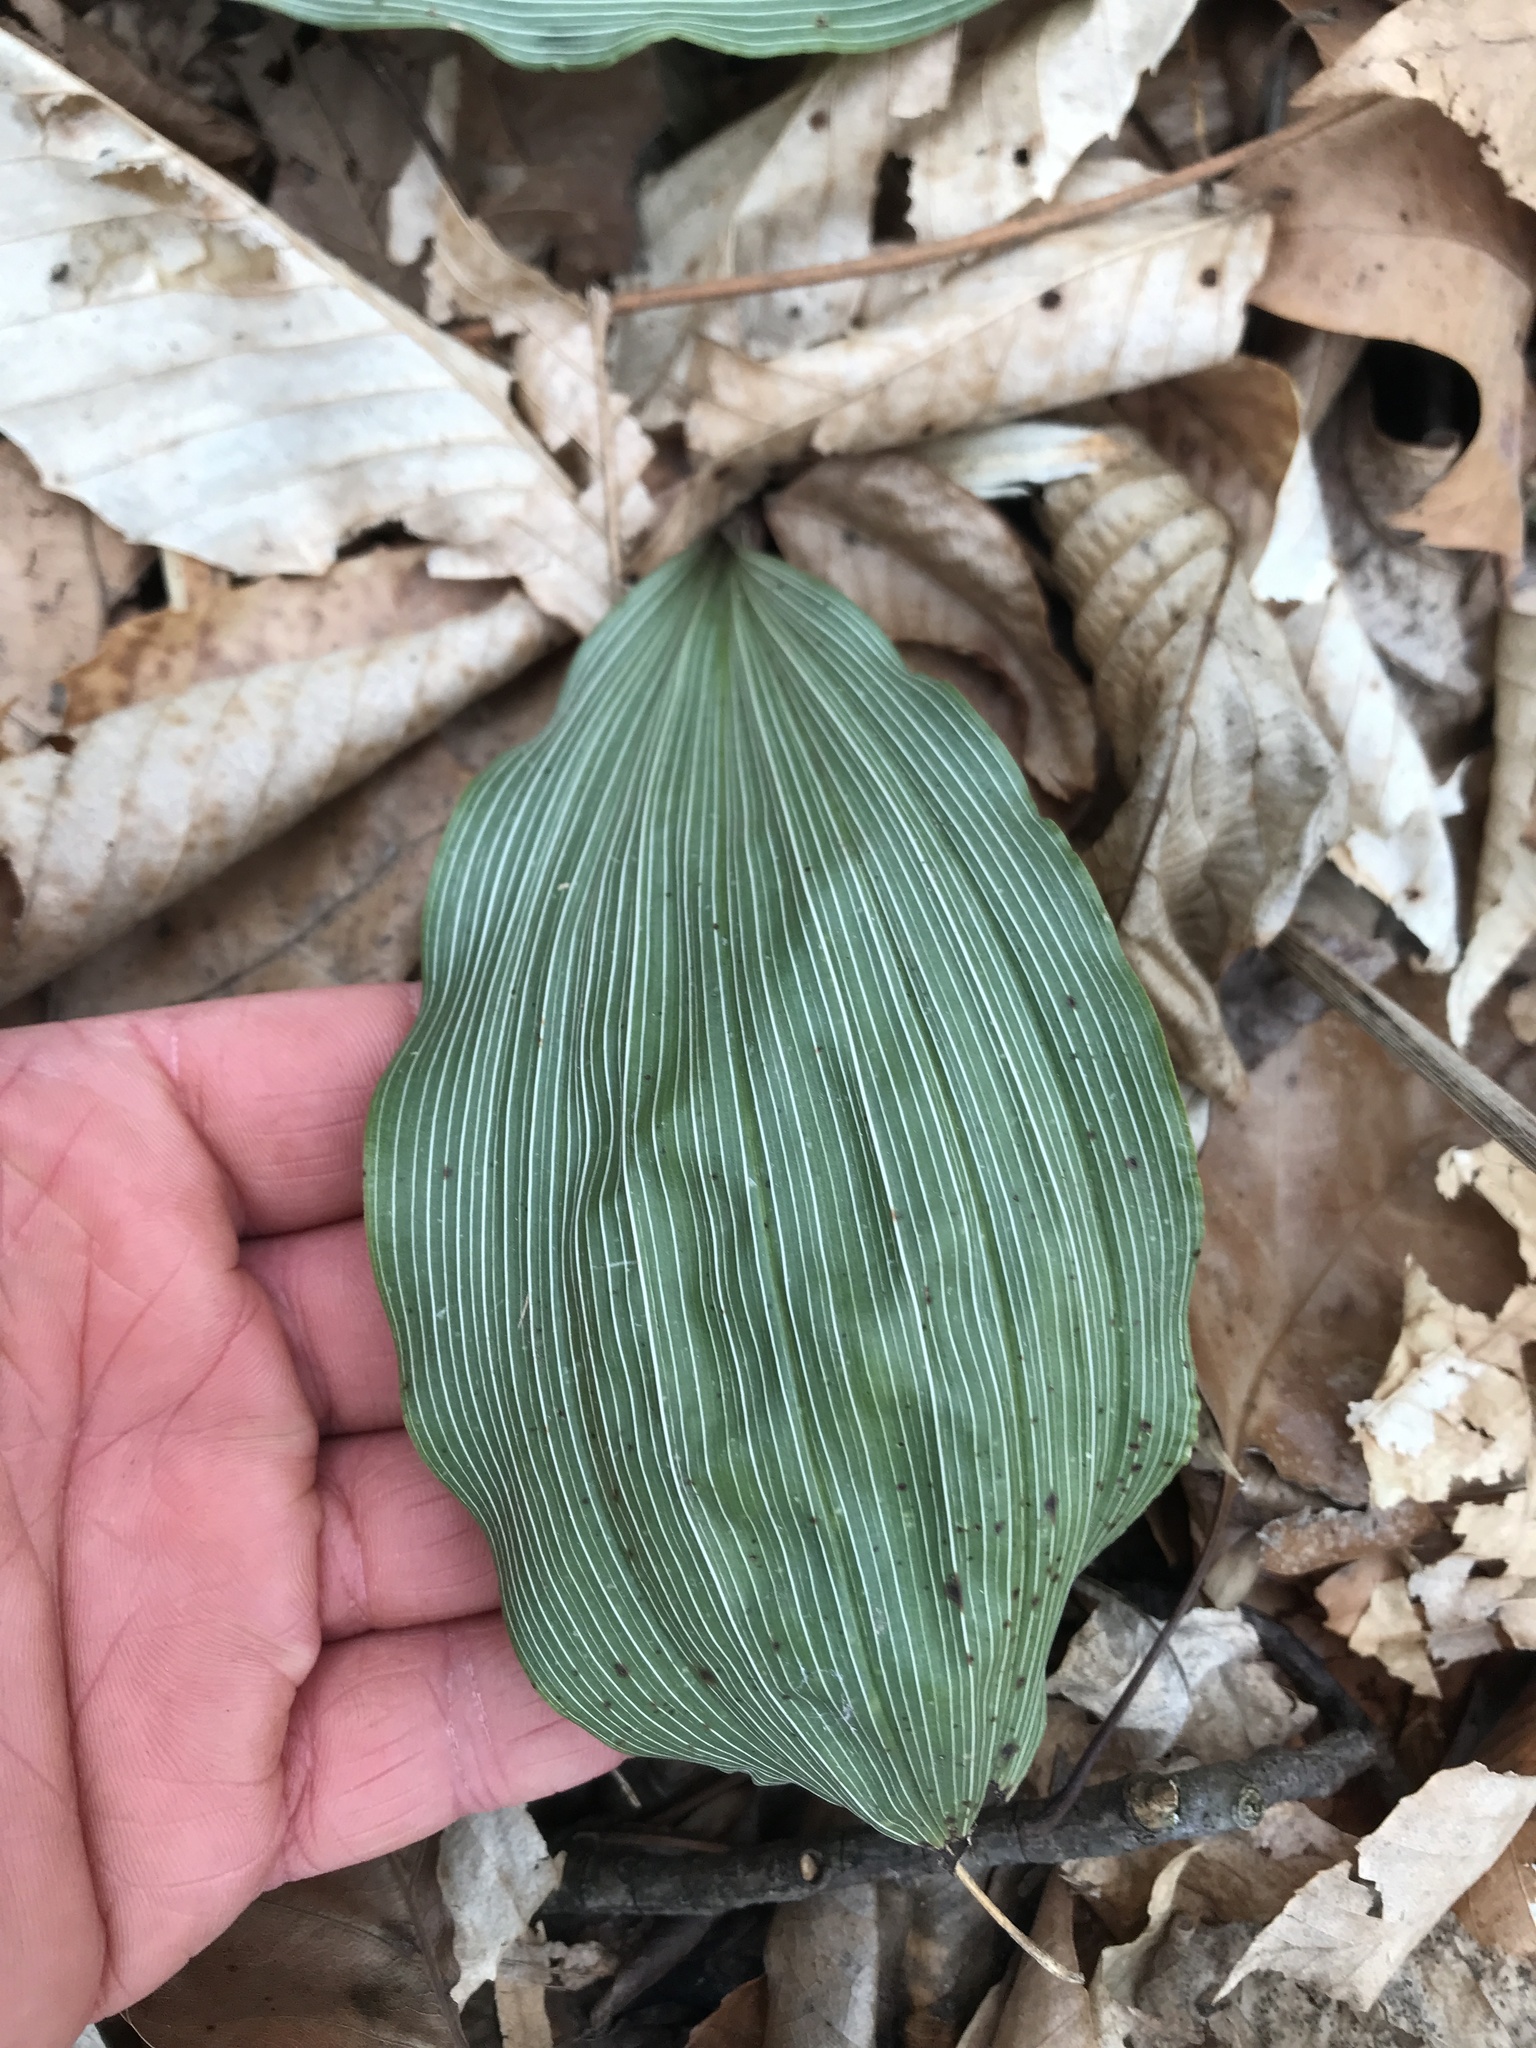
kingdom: Plantae
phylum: Tracheophyta
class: Liliopsida
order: Asparagales
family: Orchidaceae
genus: Aplectrum
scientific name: Aplectrum hyemale
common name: Adam-and-eve
